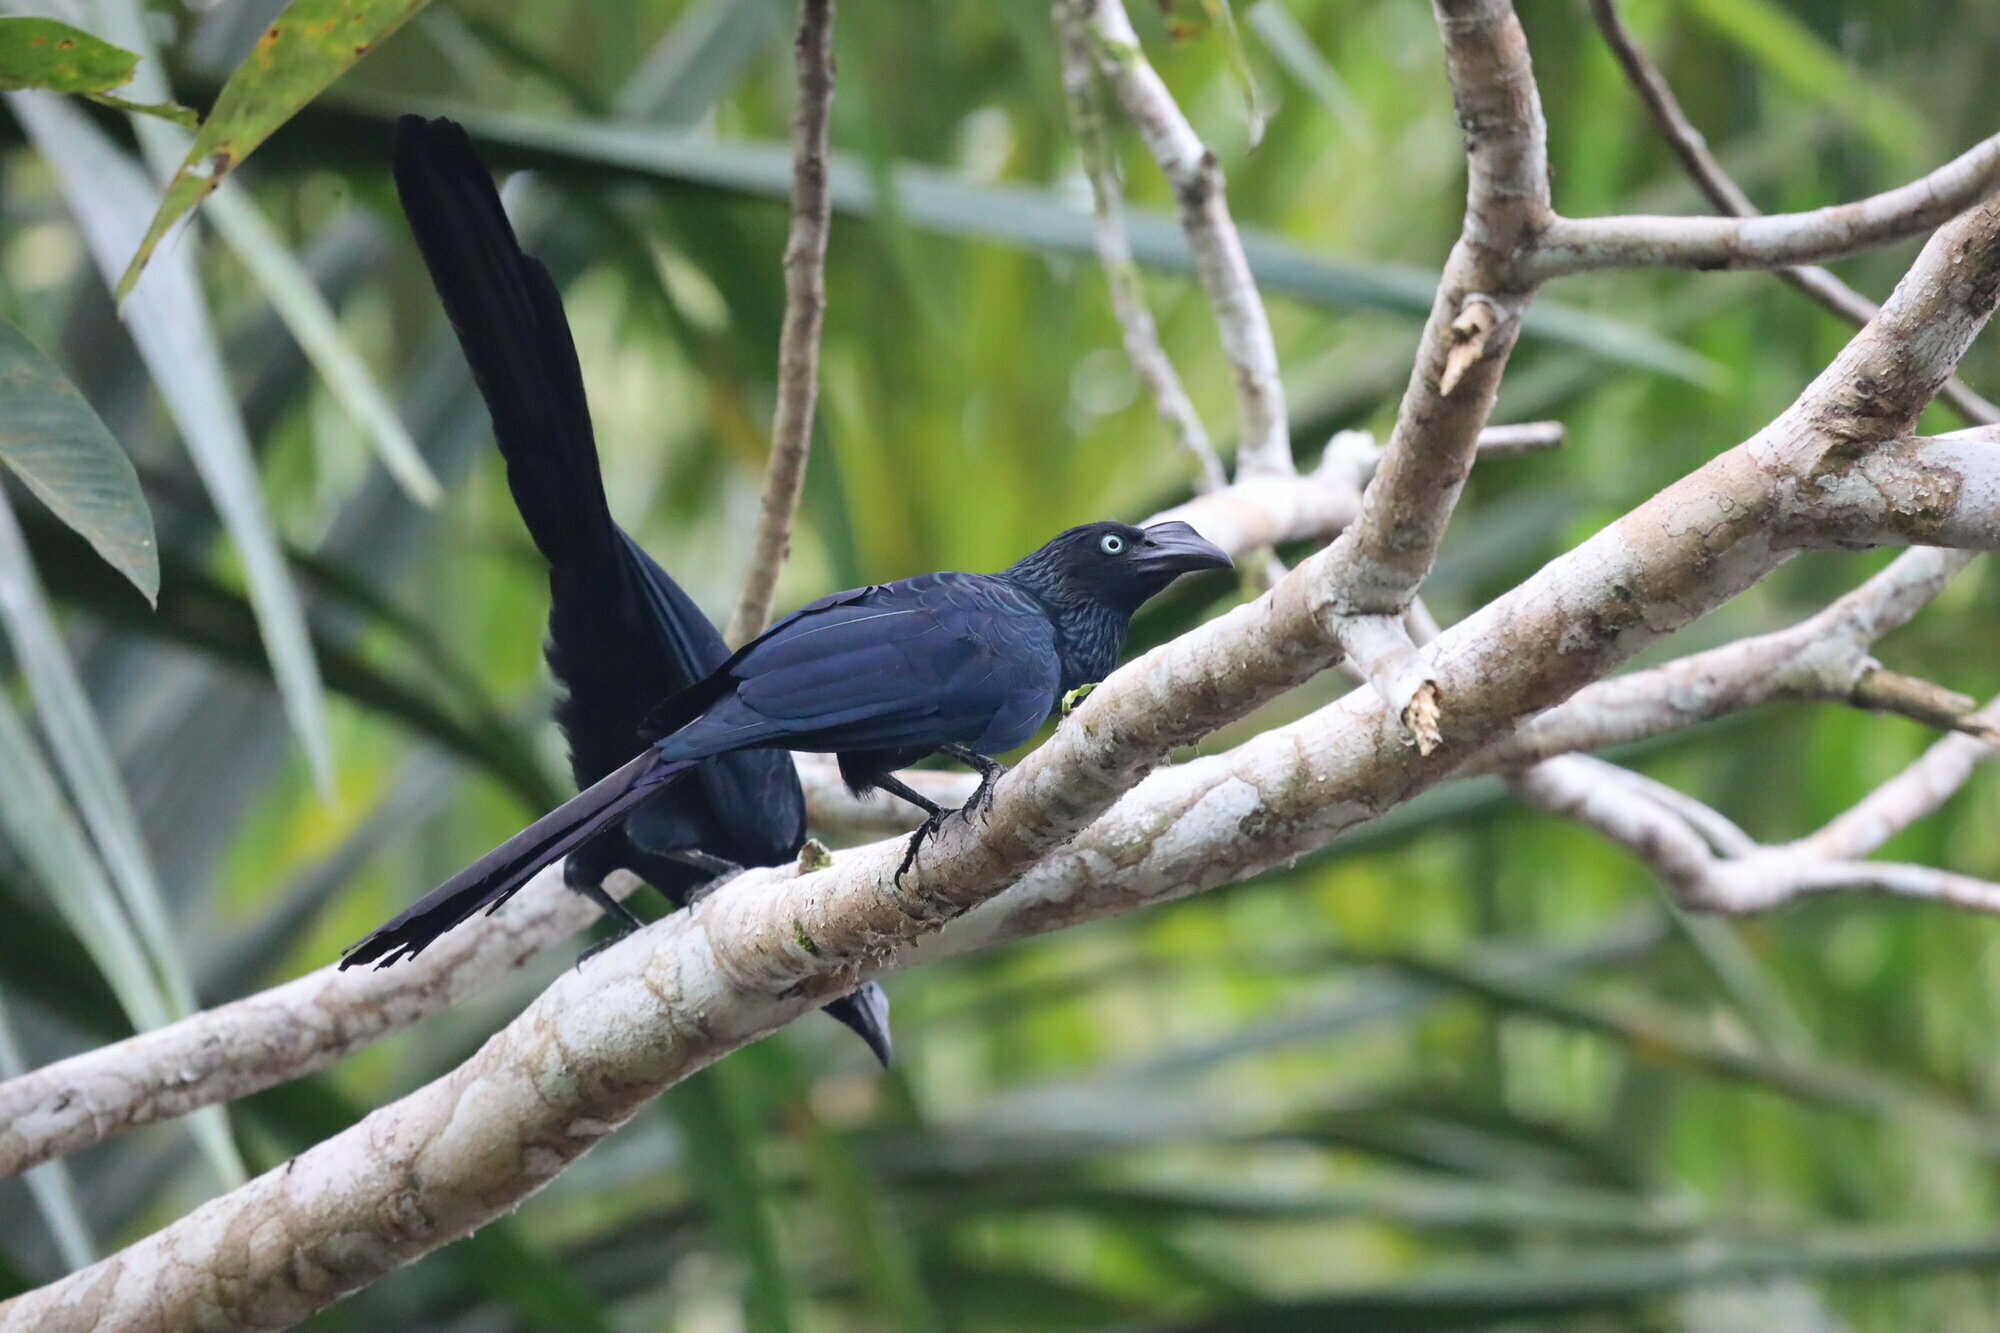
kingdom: Animalia
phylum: Chordata
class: Aves
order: Cuculiformes
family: Cuculidae
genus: Crotophaga
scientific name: Crotophaga major
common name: Greater ani
